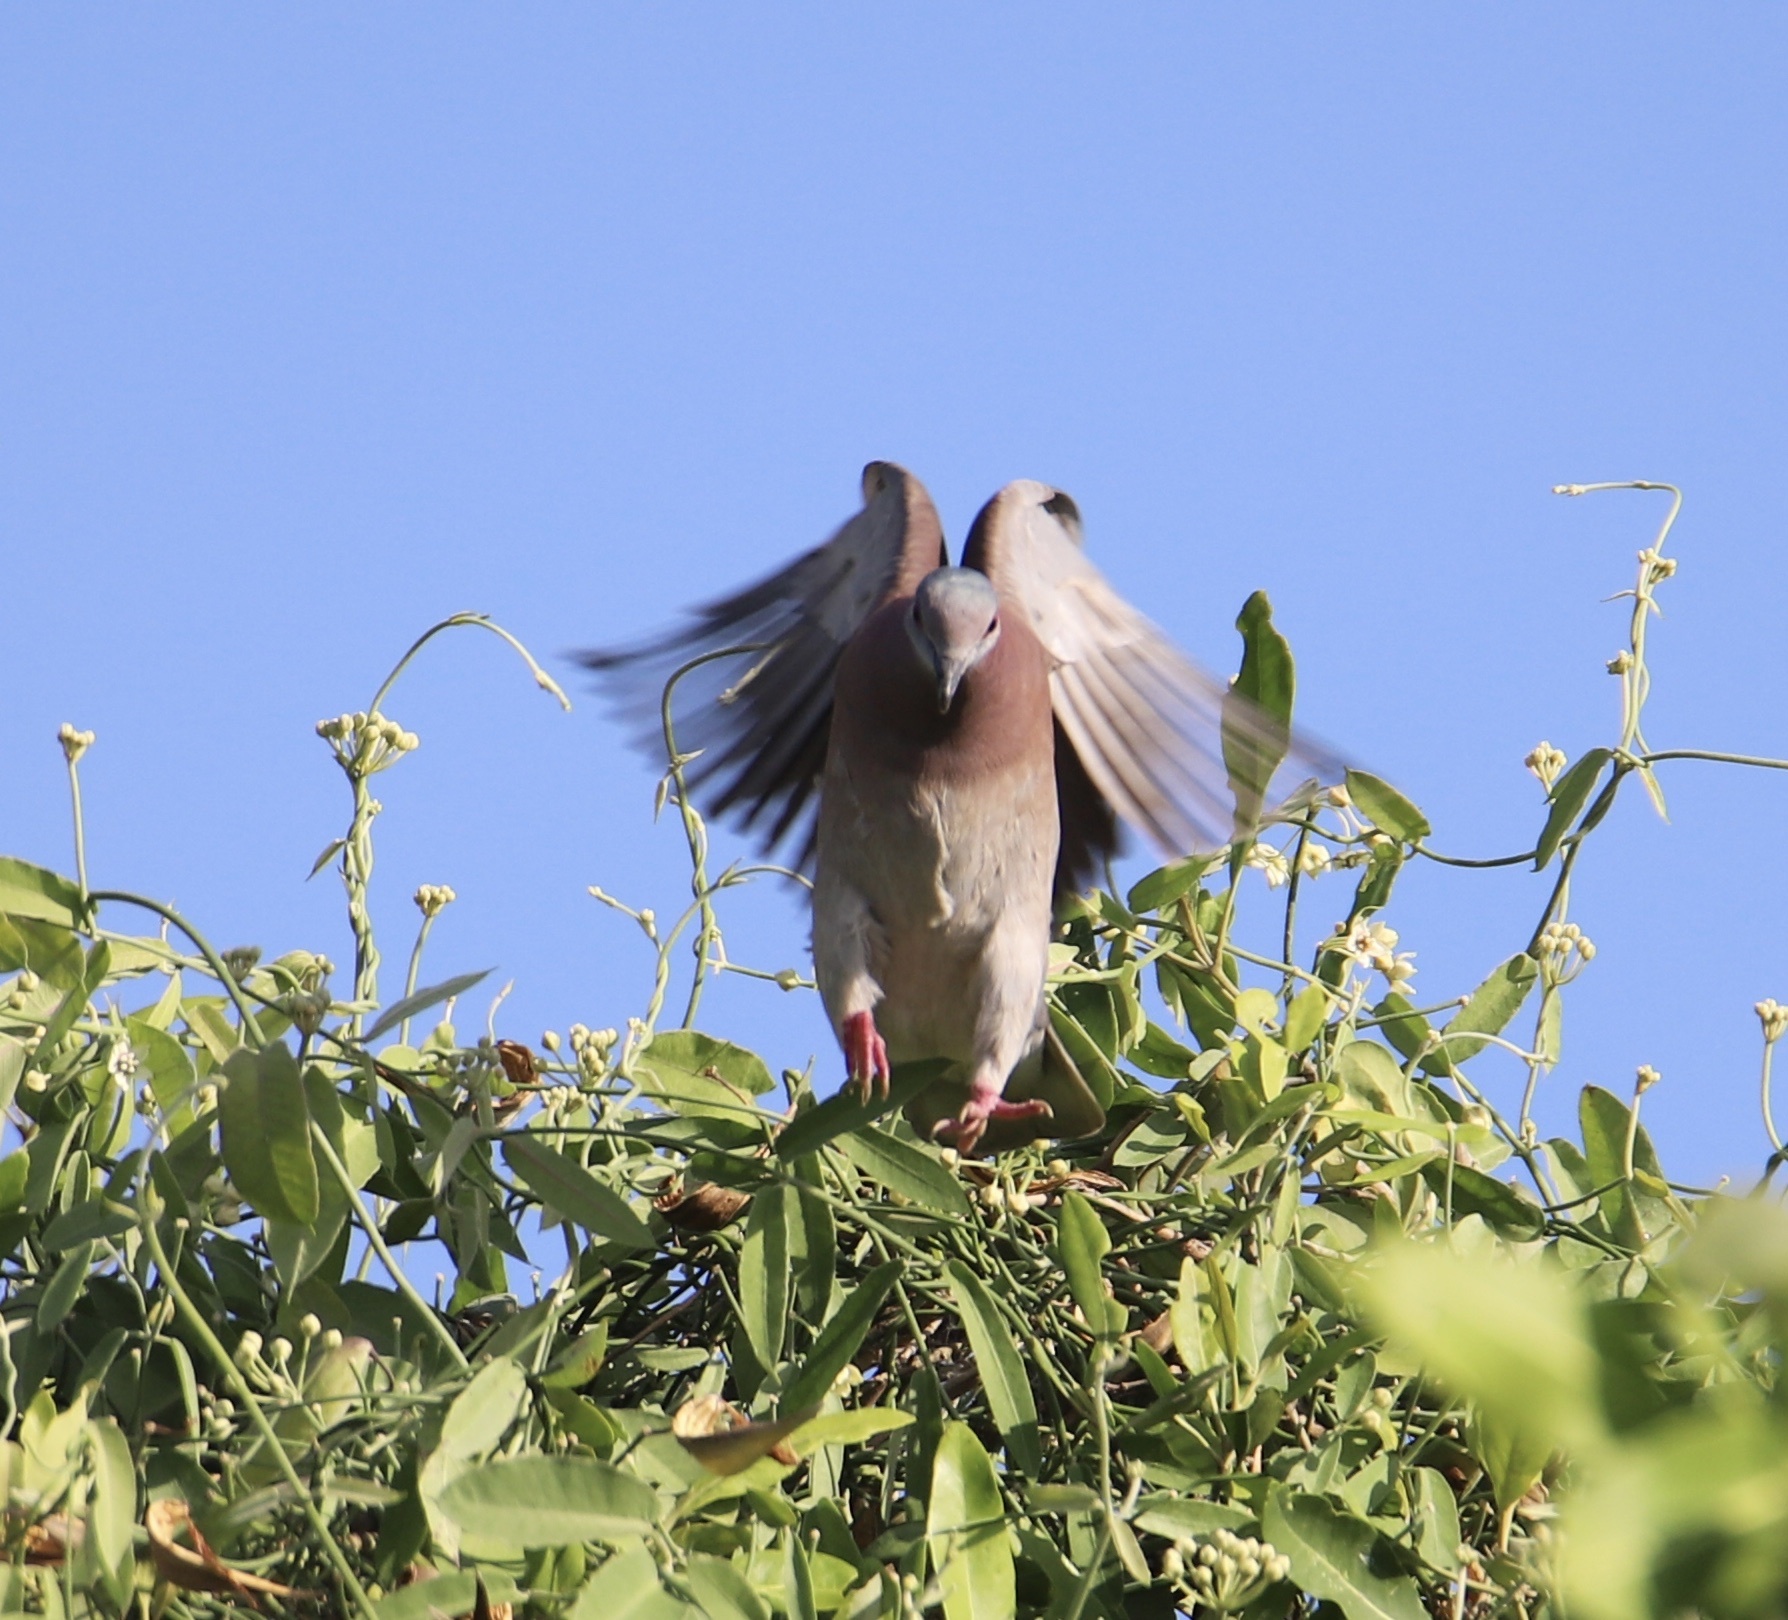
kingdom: Animalia
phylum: Chordata
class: Aves
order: Columbiformes
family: Columbidae
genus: Patagioenas
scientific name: Patagioenas cayennensis
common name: Pale-vented pigeon
